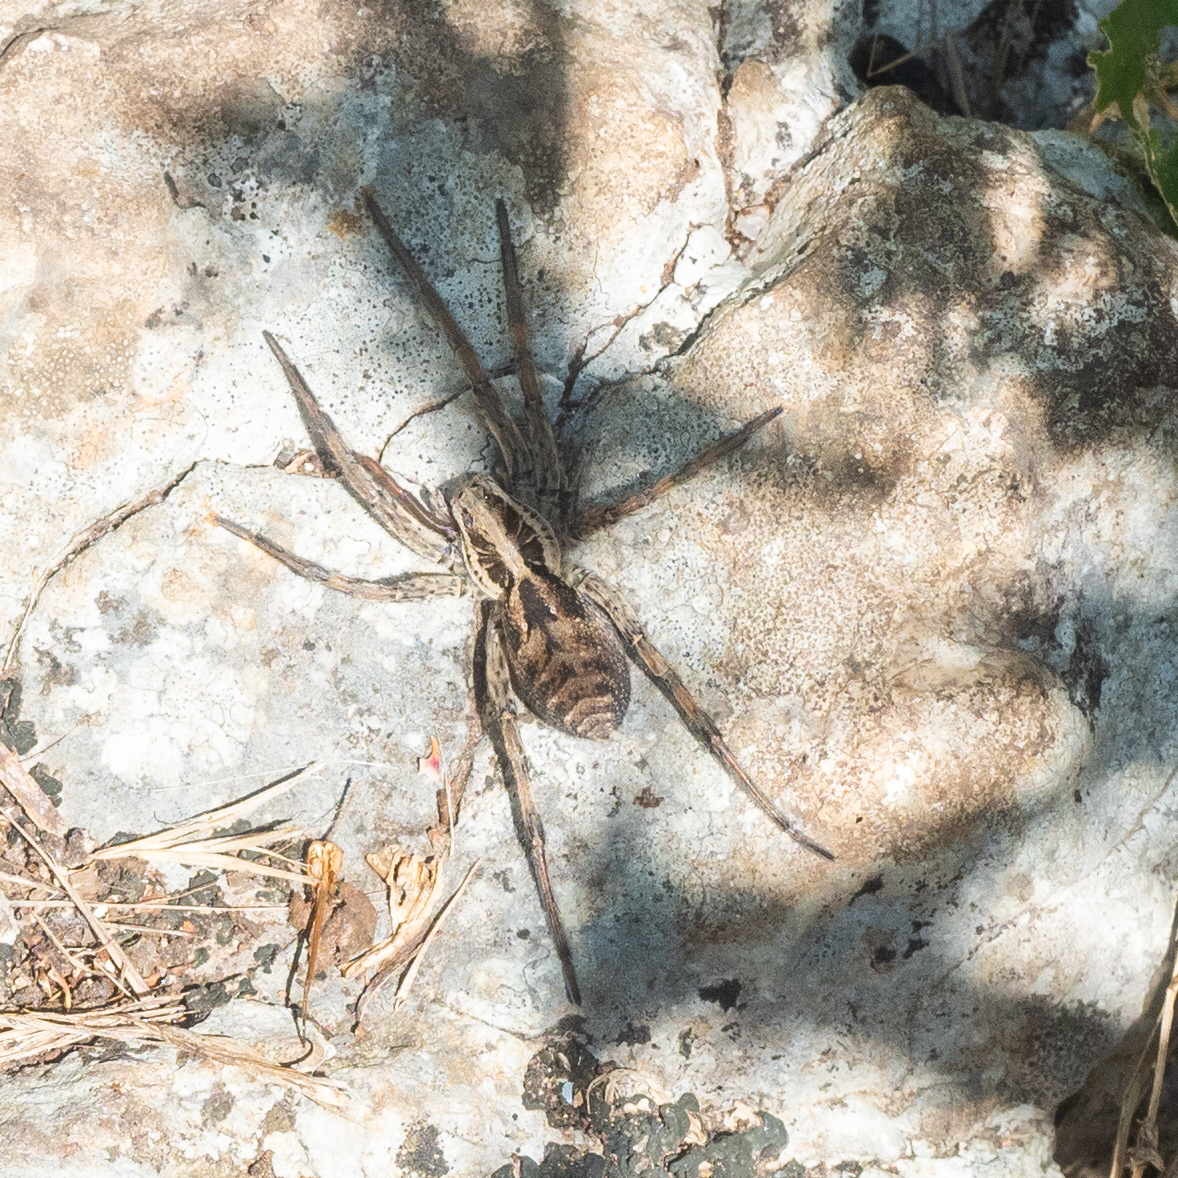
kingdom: Animalia
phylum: Arthropoda
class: Arachnida
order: Araneae
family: Lycosidae
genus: Hogna
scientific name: Hogna radiata
